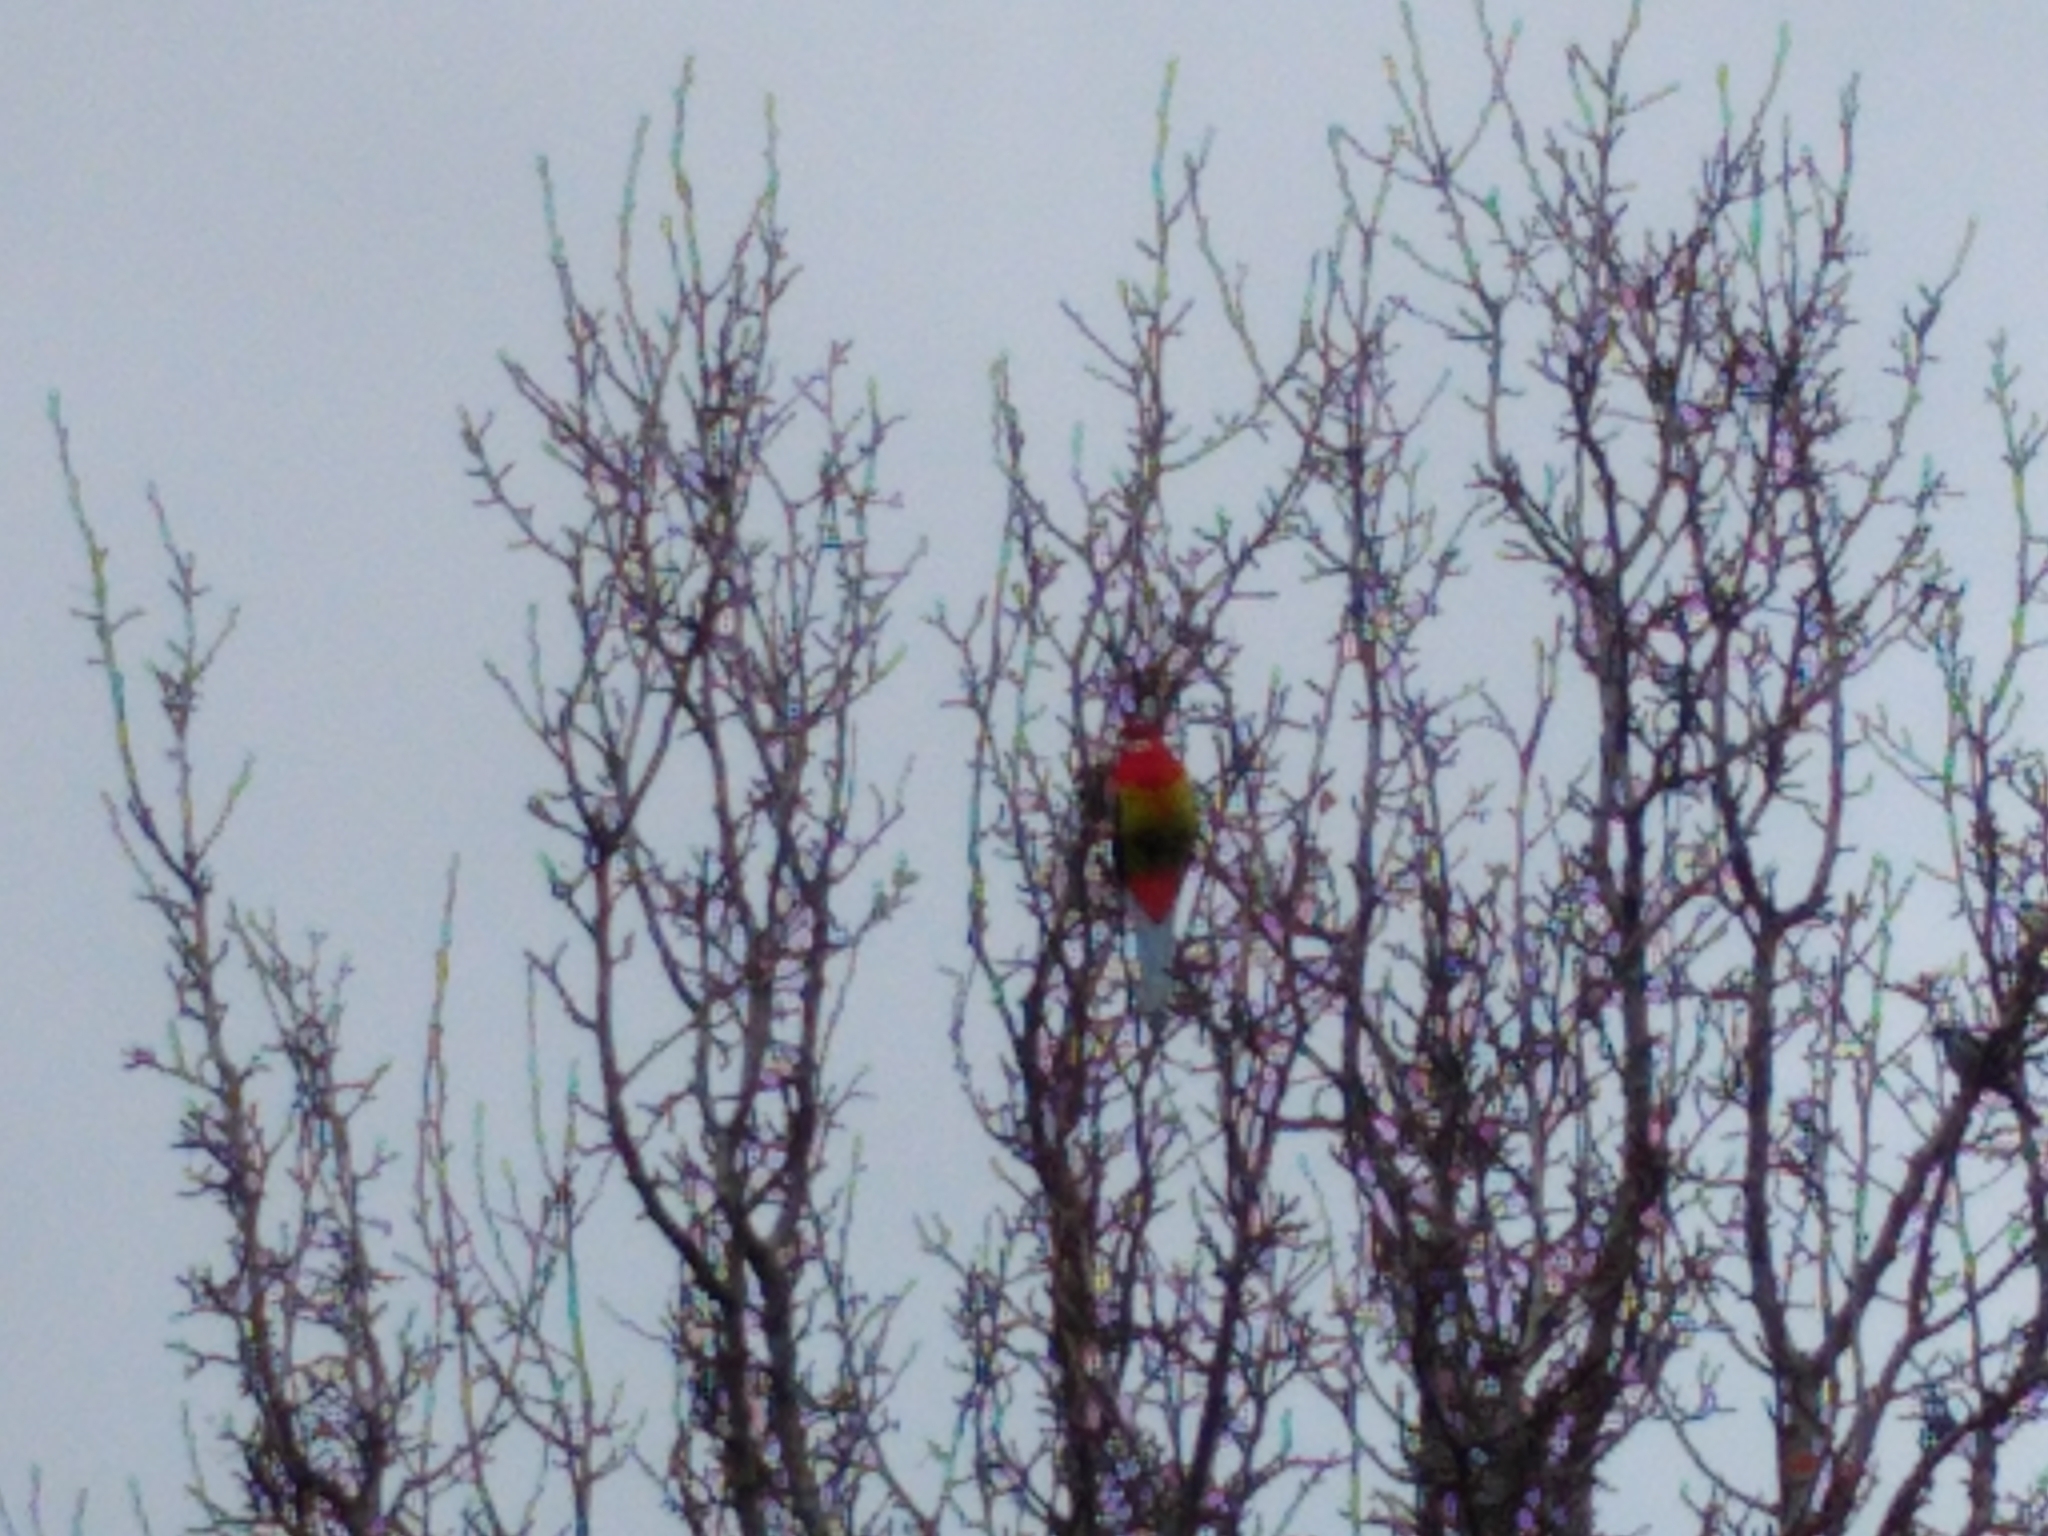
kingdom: Animalia
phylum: Chordata
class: Aves
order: Psittaciformes
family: Psittacidae
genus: Platycercus
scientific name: Platycercus eximius
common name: Eastern rosella
